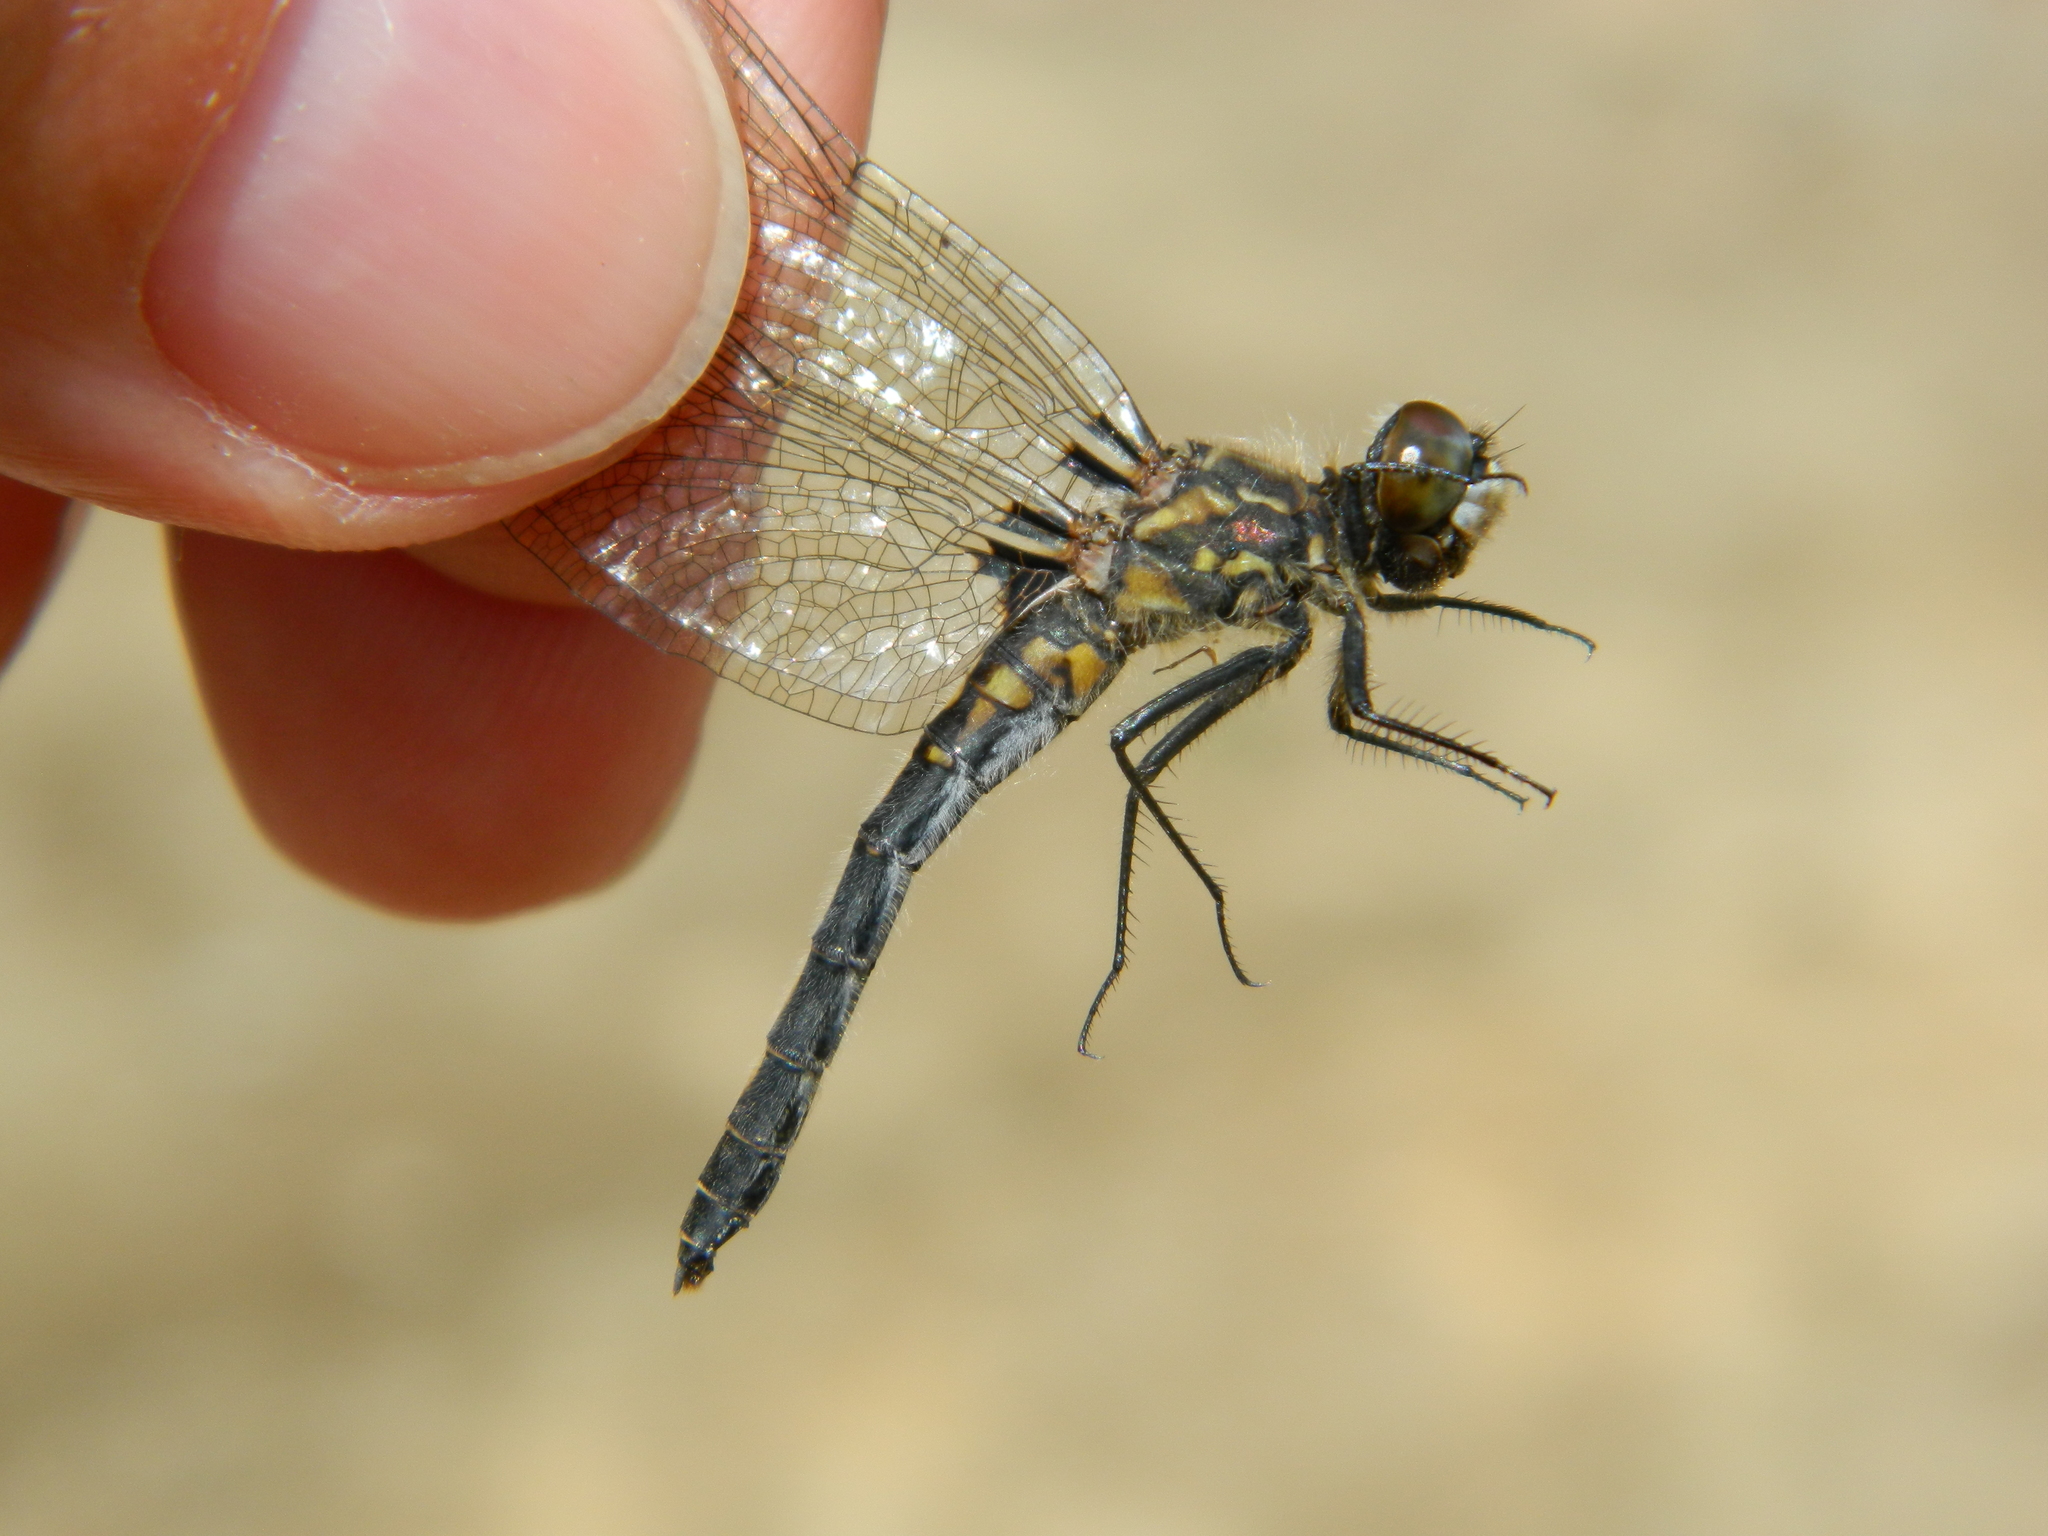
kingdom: Animalia
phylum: Arthropoda
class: Insecta
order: Odonata
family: Libellulidae
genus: Leucorrhinia
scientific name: Leucorrhinia hudsonica
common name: Hudsonian whiteface
